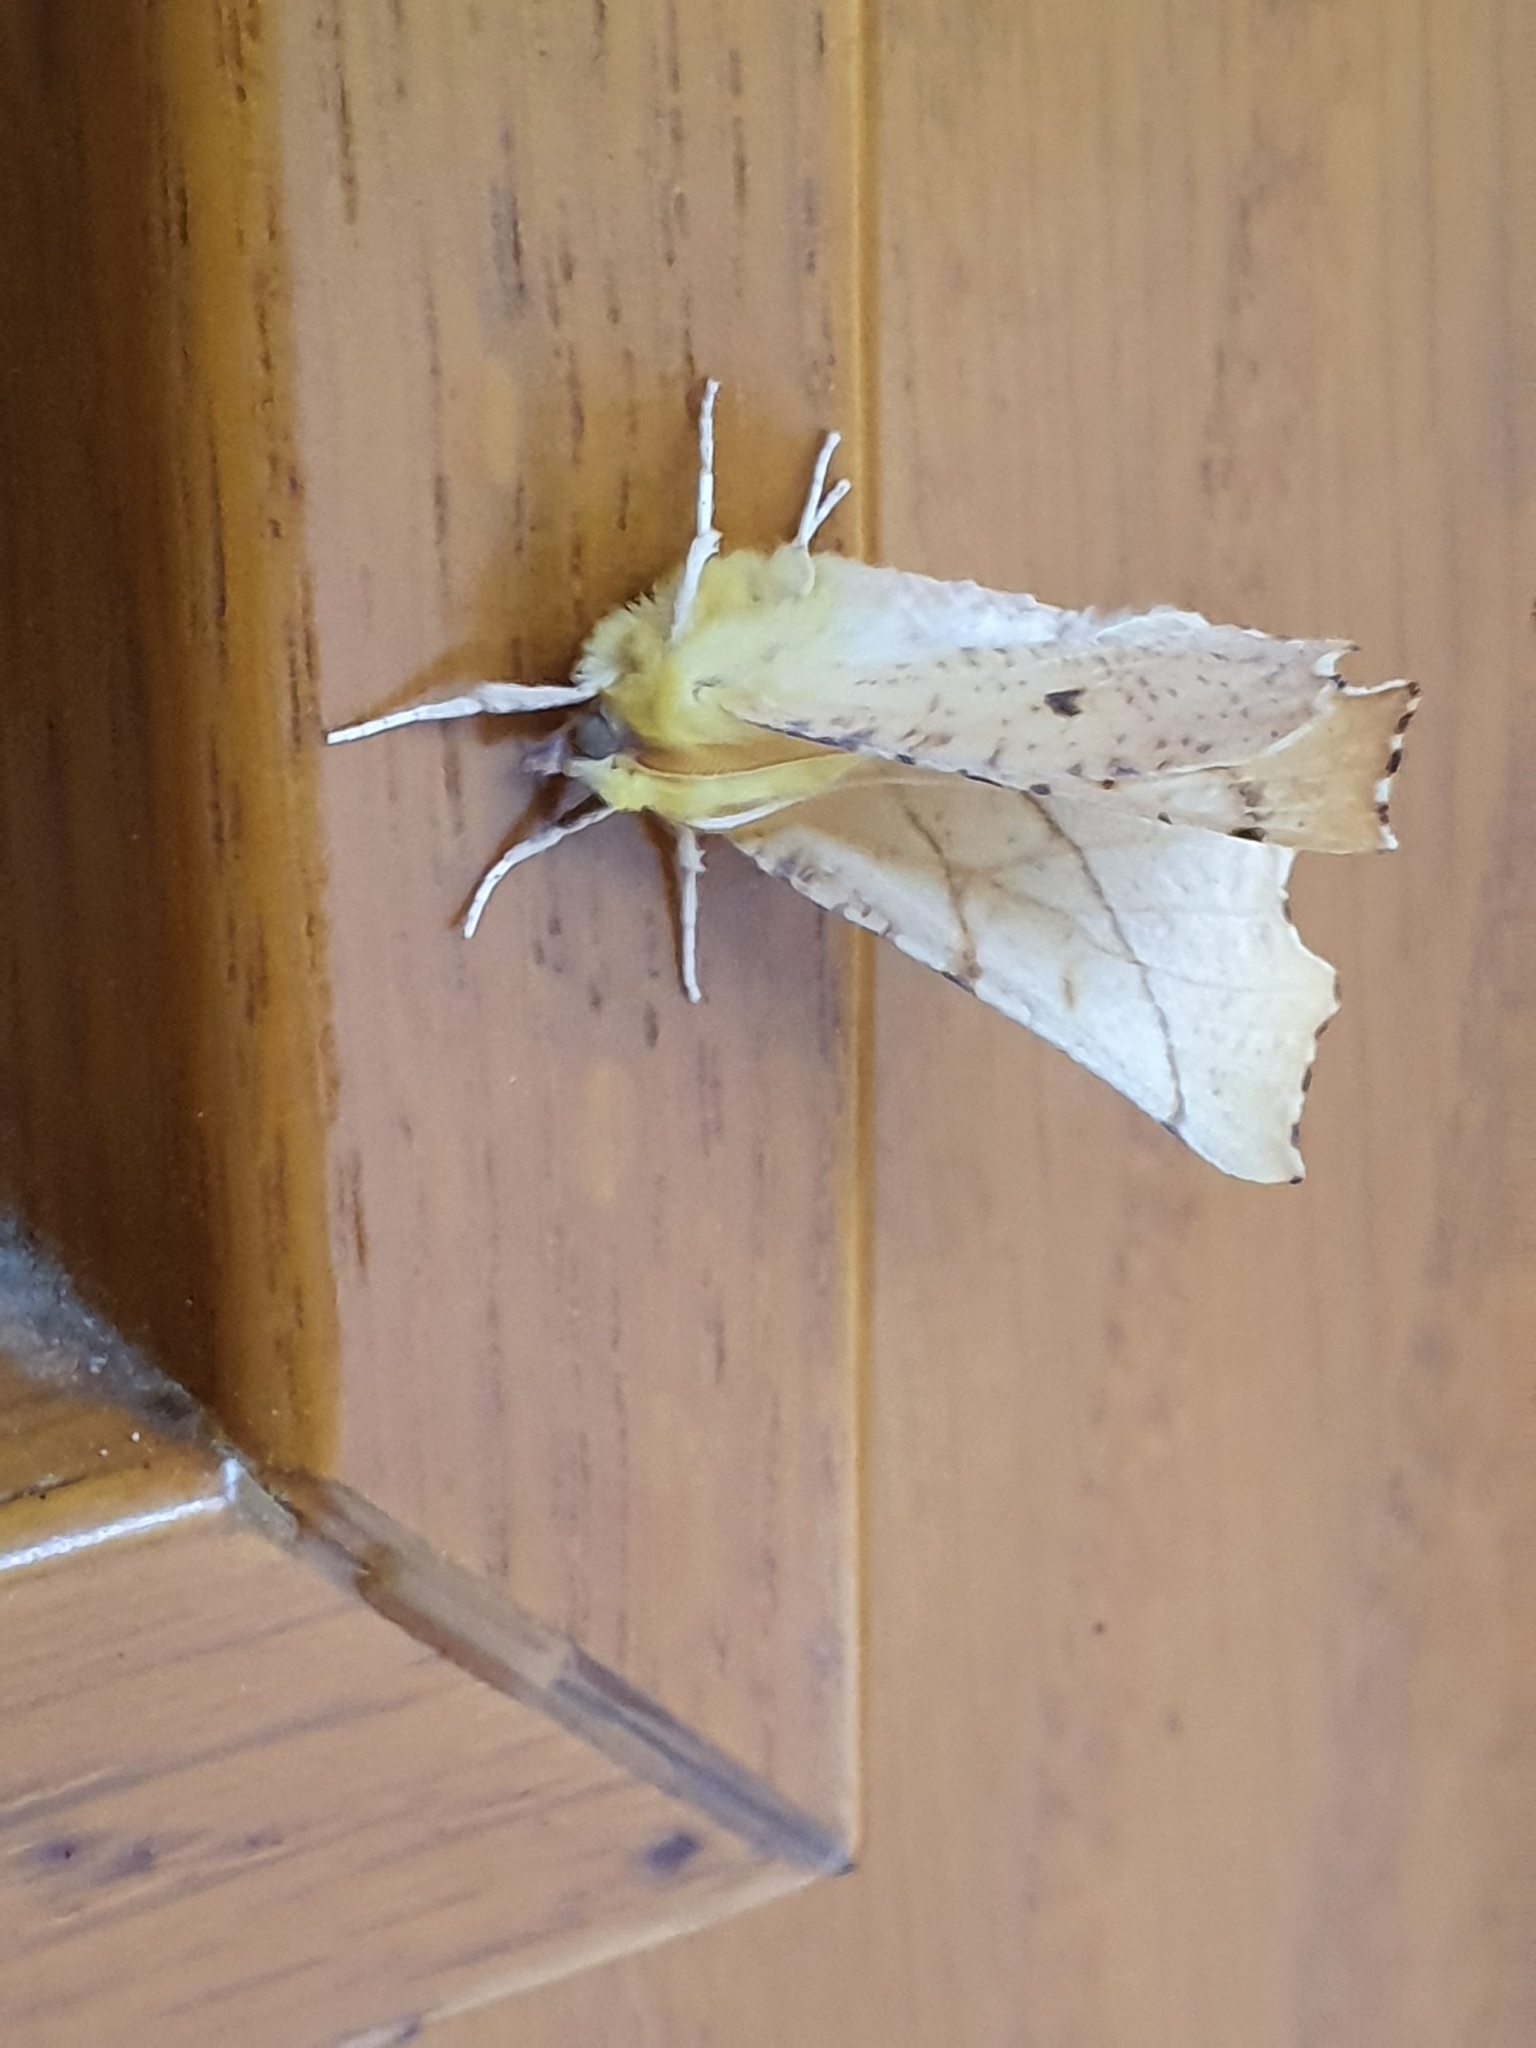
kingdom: Animalia
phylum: Arthropoda
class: Insecta
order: Lepidoptera
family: Geometridae
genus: Ennomos
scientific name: Ennomos alniaria
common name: Canary-shouldered thorn
